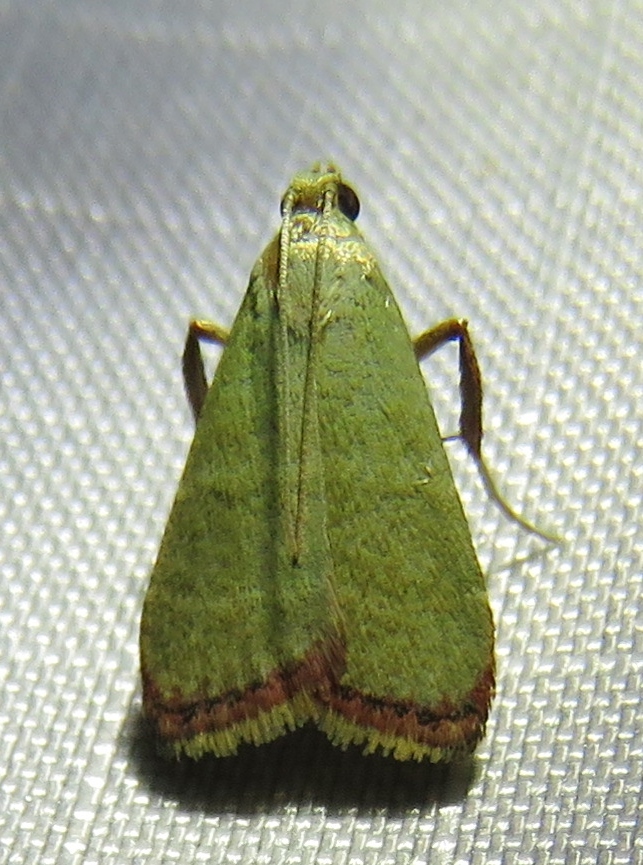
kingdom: Animalia
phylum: Arthropoda
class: Insecta
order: Lepidoptera
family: Pyralidae
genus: Arta
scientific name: Arta olivalis
